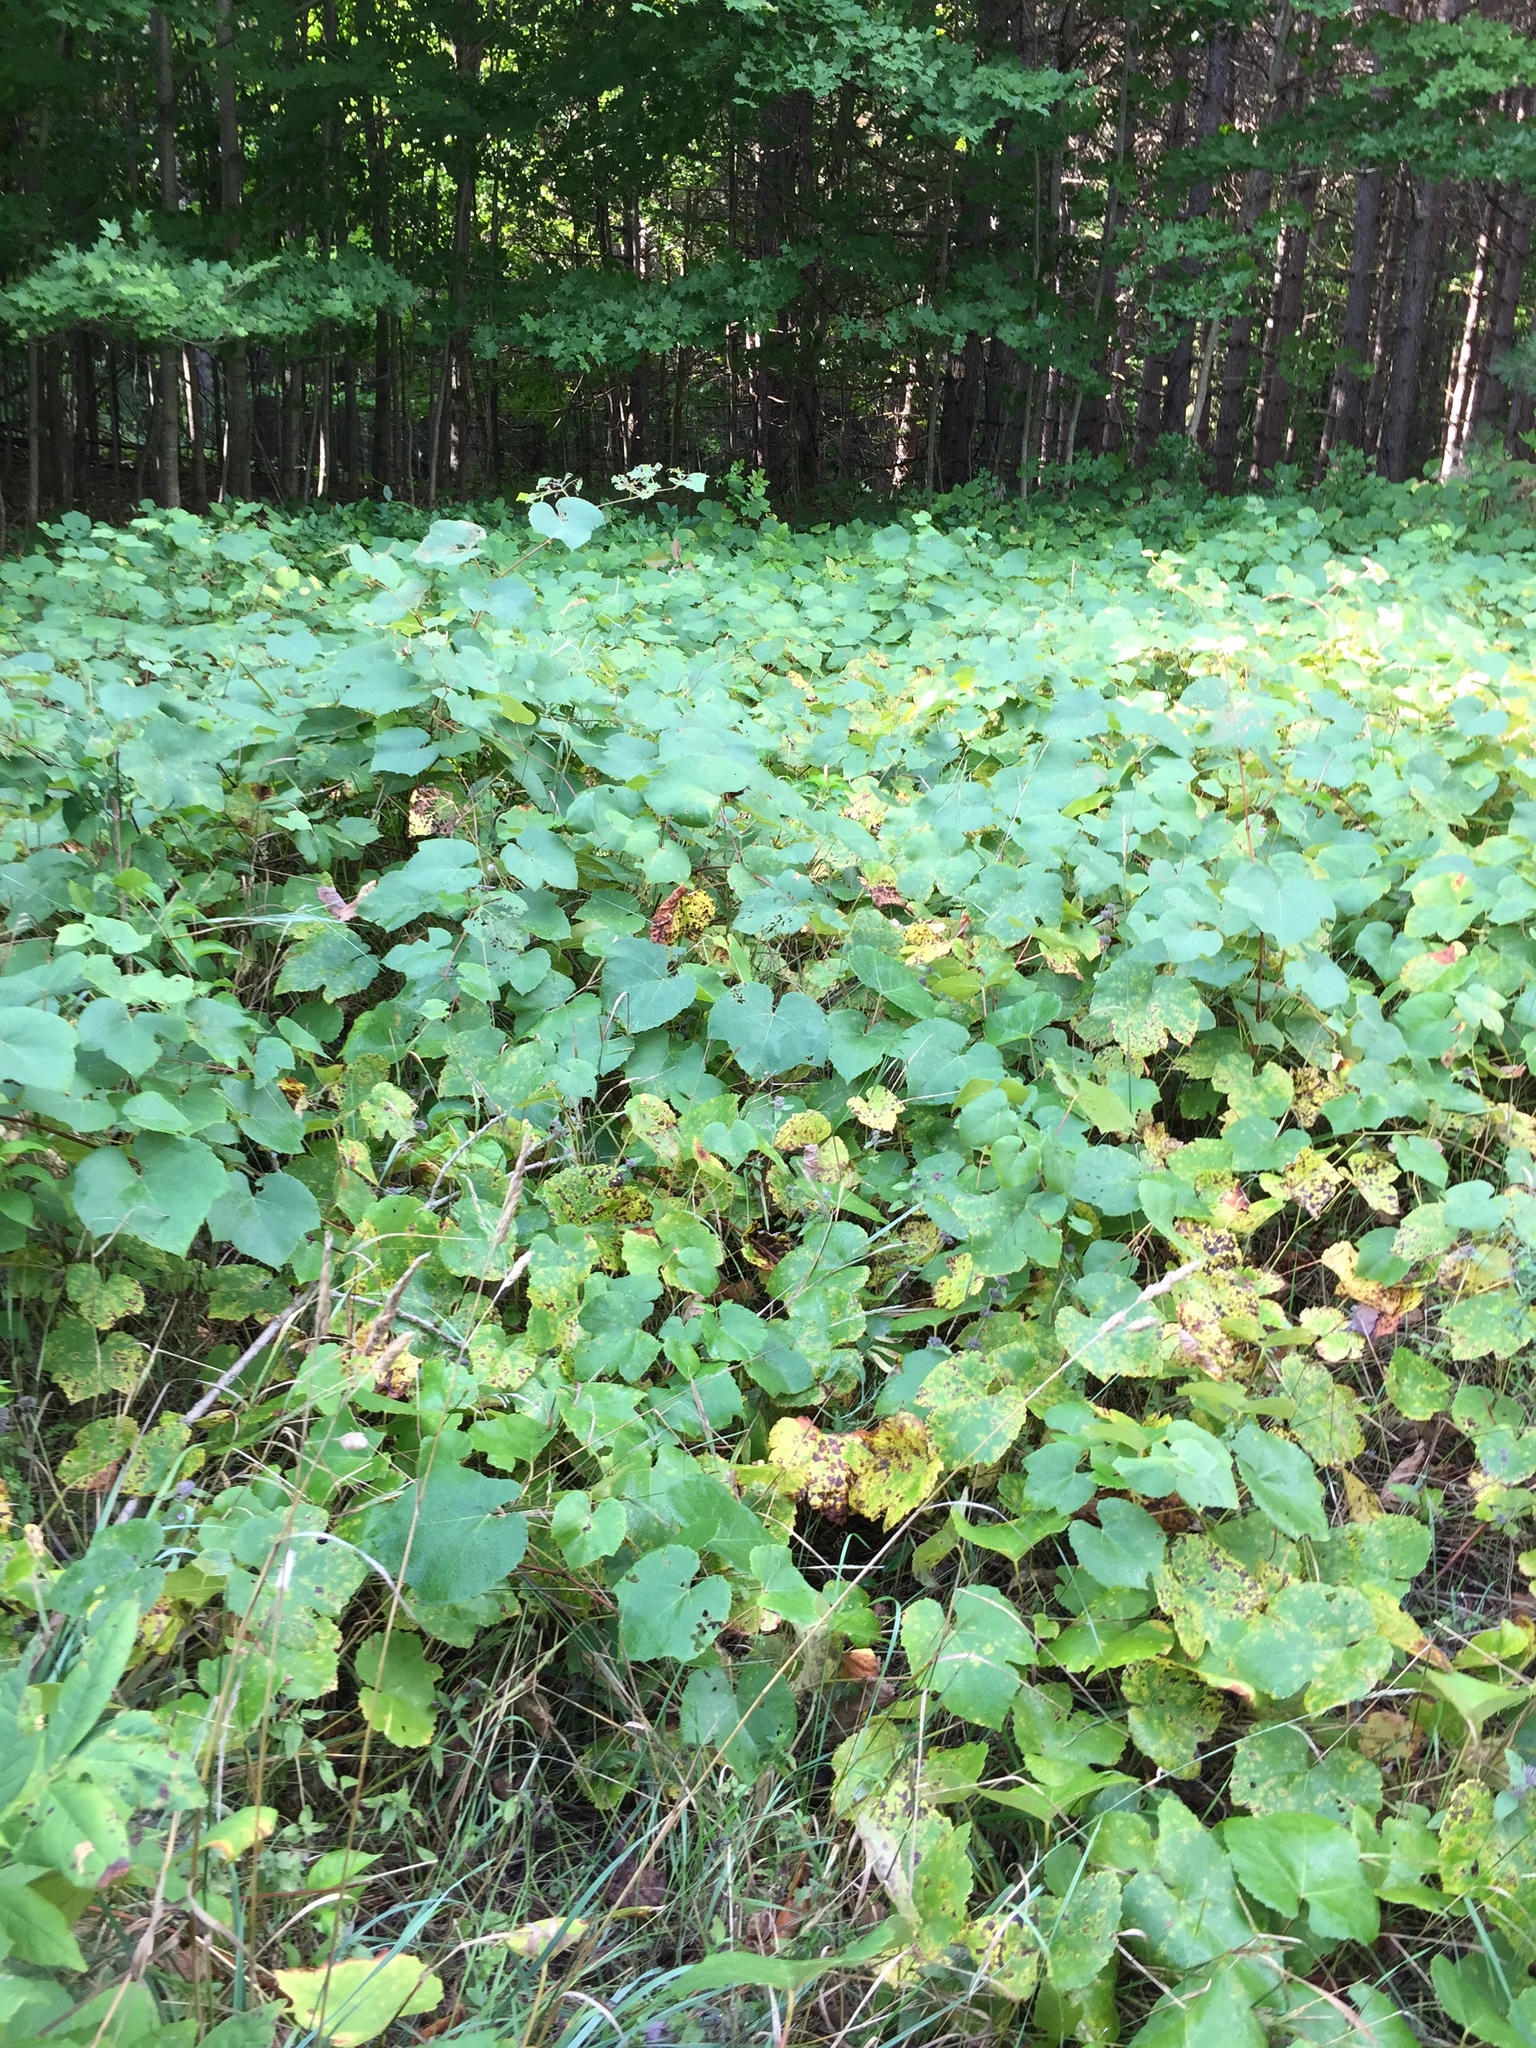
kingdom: Plantae
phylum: Tracheophyta
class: Magnoliopsida
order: Vitales
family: Vitaceae
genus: Vitis
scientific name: Vitis riparia
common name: Frost grape
